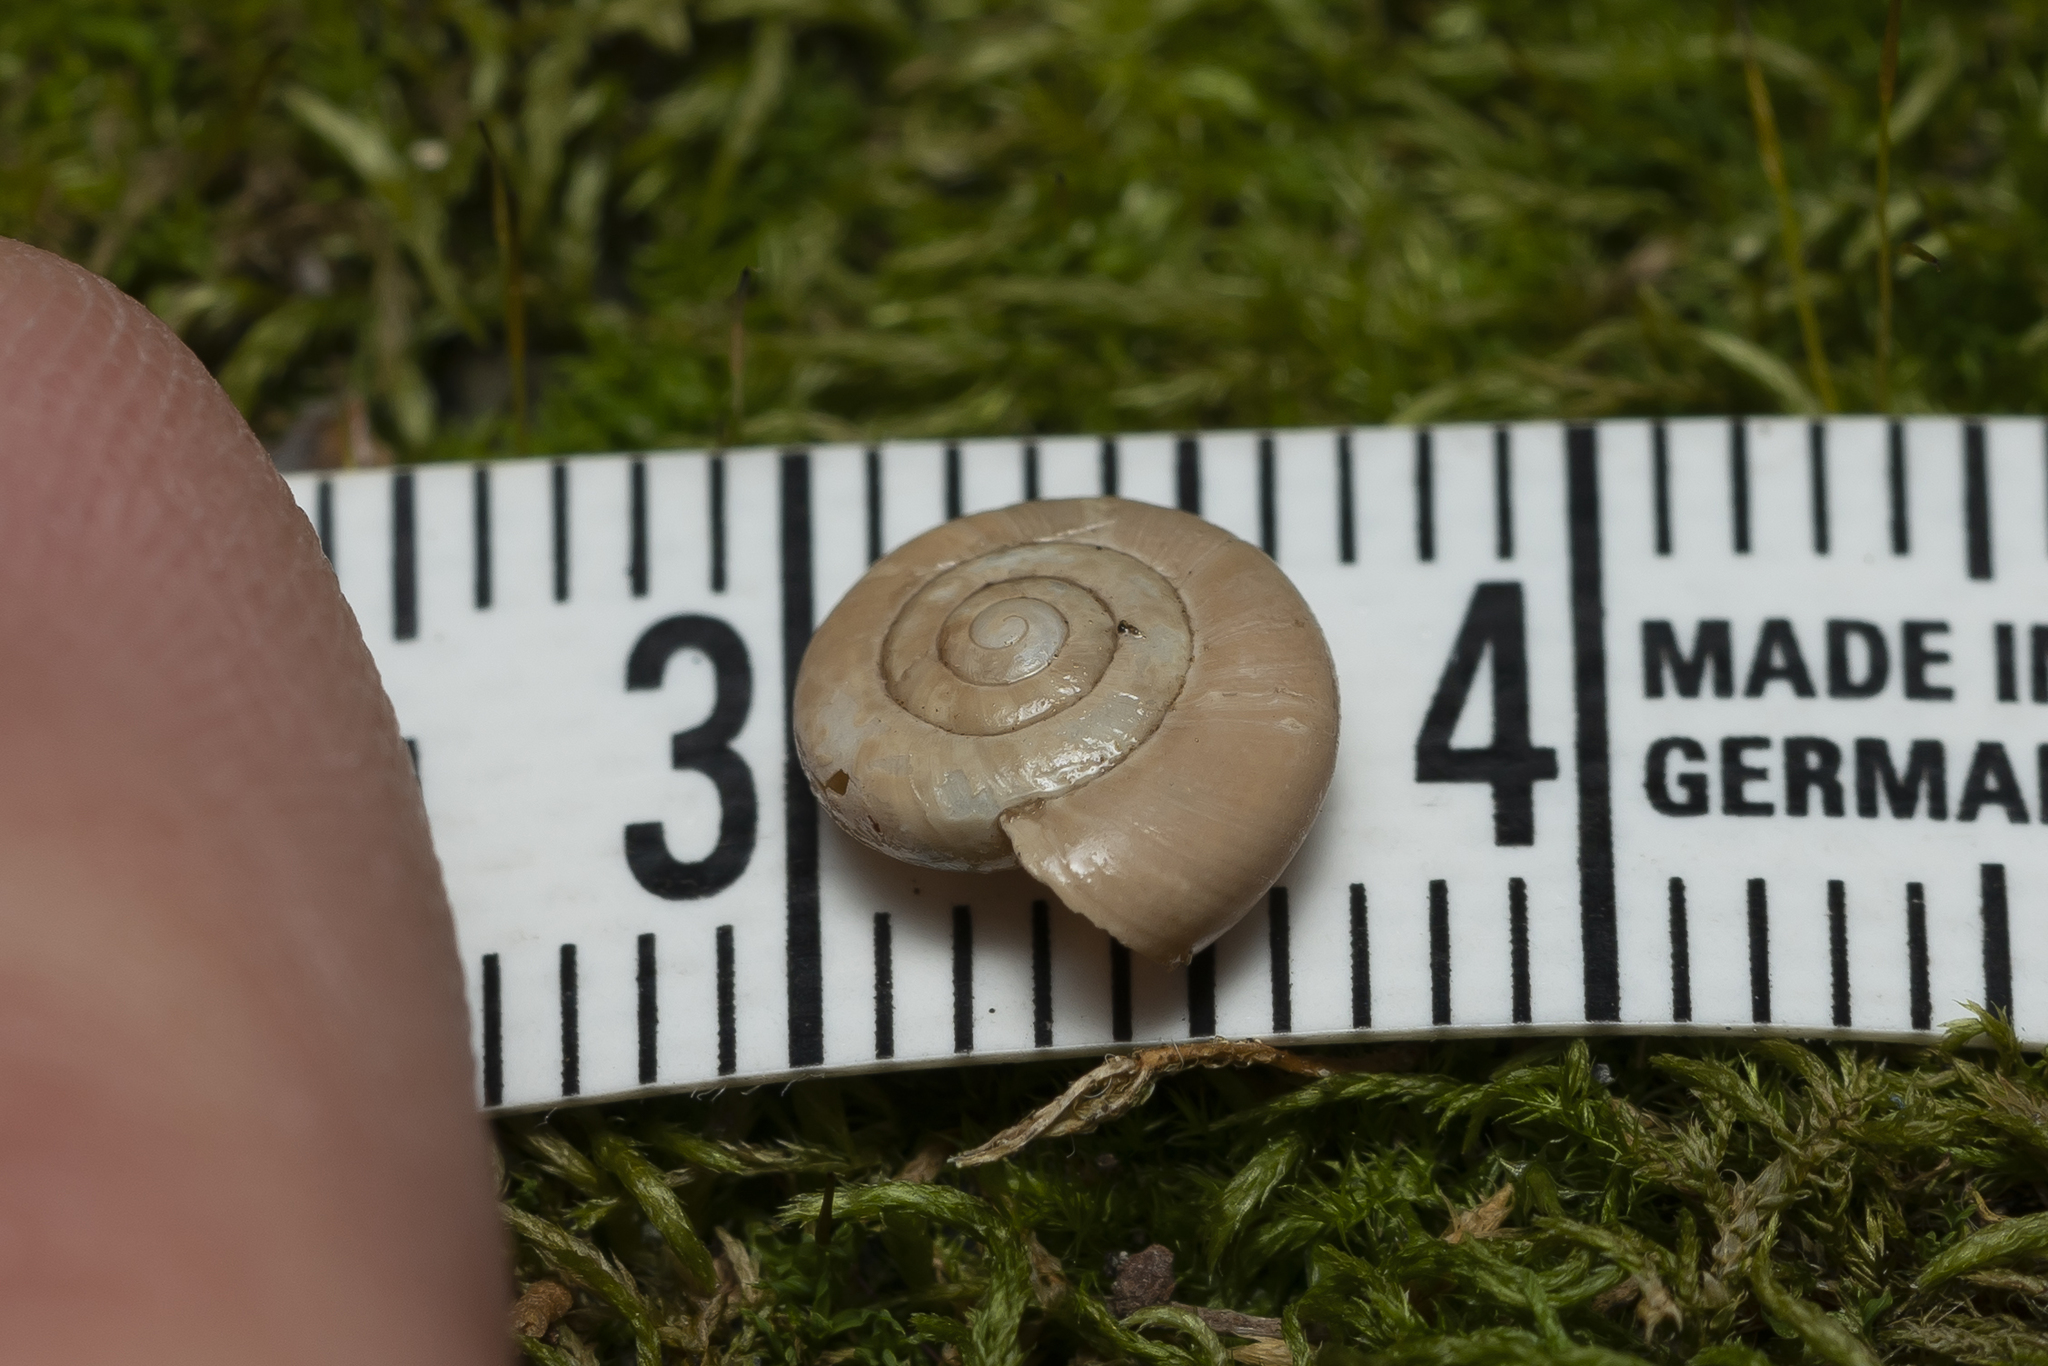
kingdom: Animalia
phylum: Mollusca
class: Gastropoda
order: Stylommatophora
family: Oxychilidae
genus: Oxychilus
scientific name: Oxychilus cyprius
